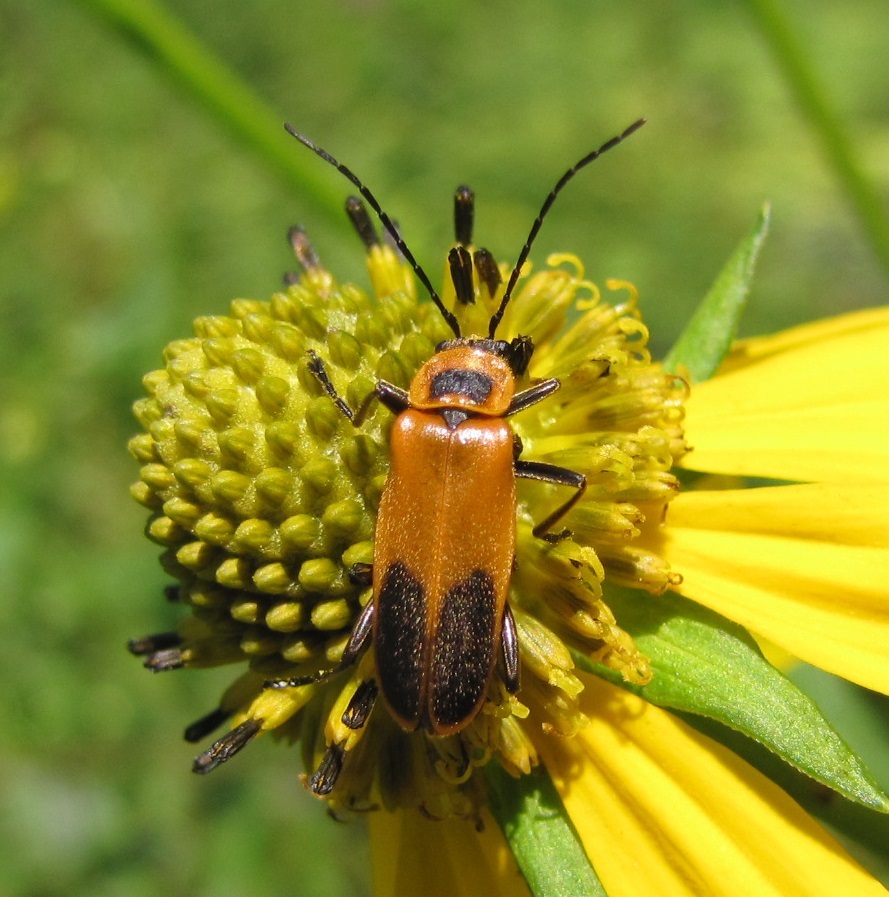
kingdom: Animalia
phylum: Arthropoda
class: Insecta
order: Coleoptera
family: Cantharidae
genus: Chauliognathus
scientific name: Chauliognathus pensylvanicus
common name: Goldenrod soldier beetle
